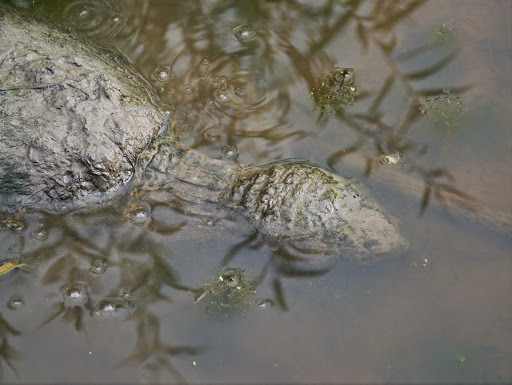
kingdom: Animalia
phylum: Chordata
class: Testudines
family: Chelydridae
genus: Chelydra
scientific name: Chelydra serpentina
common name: Common snapping turtle
